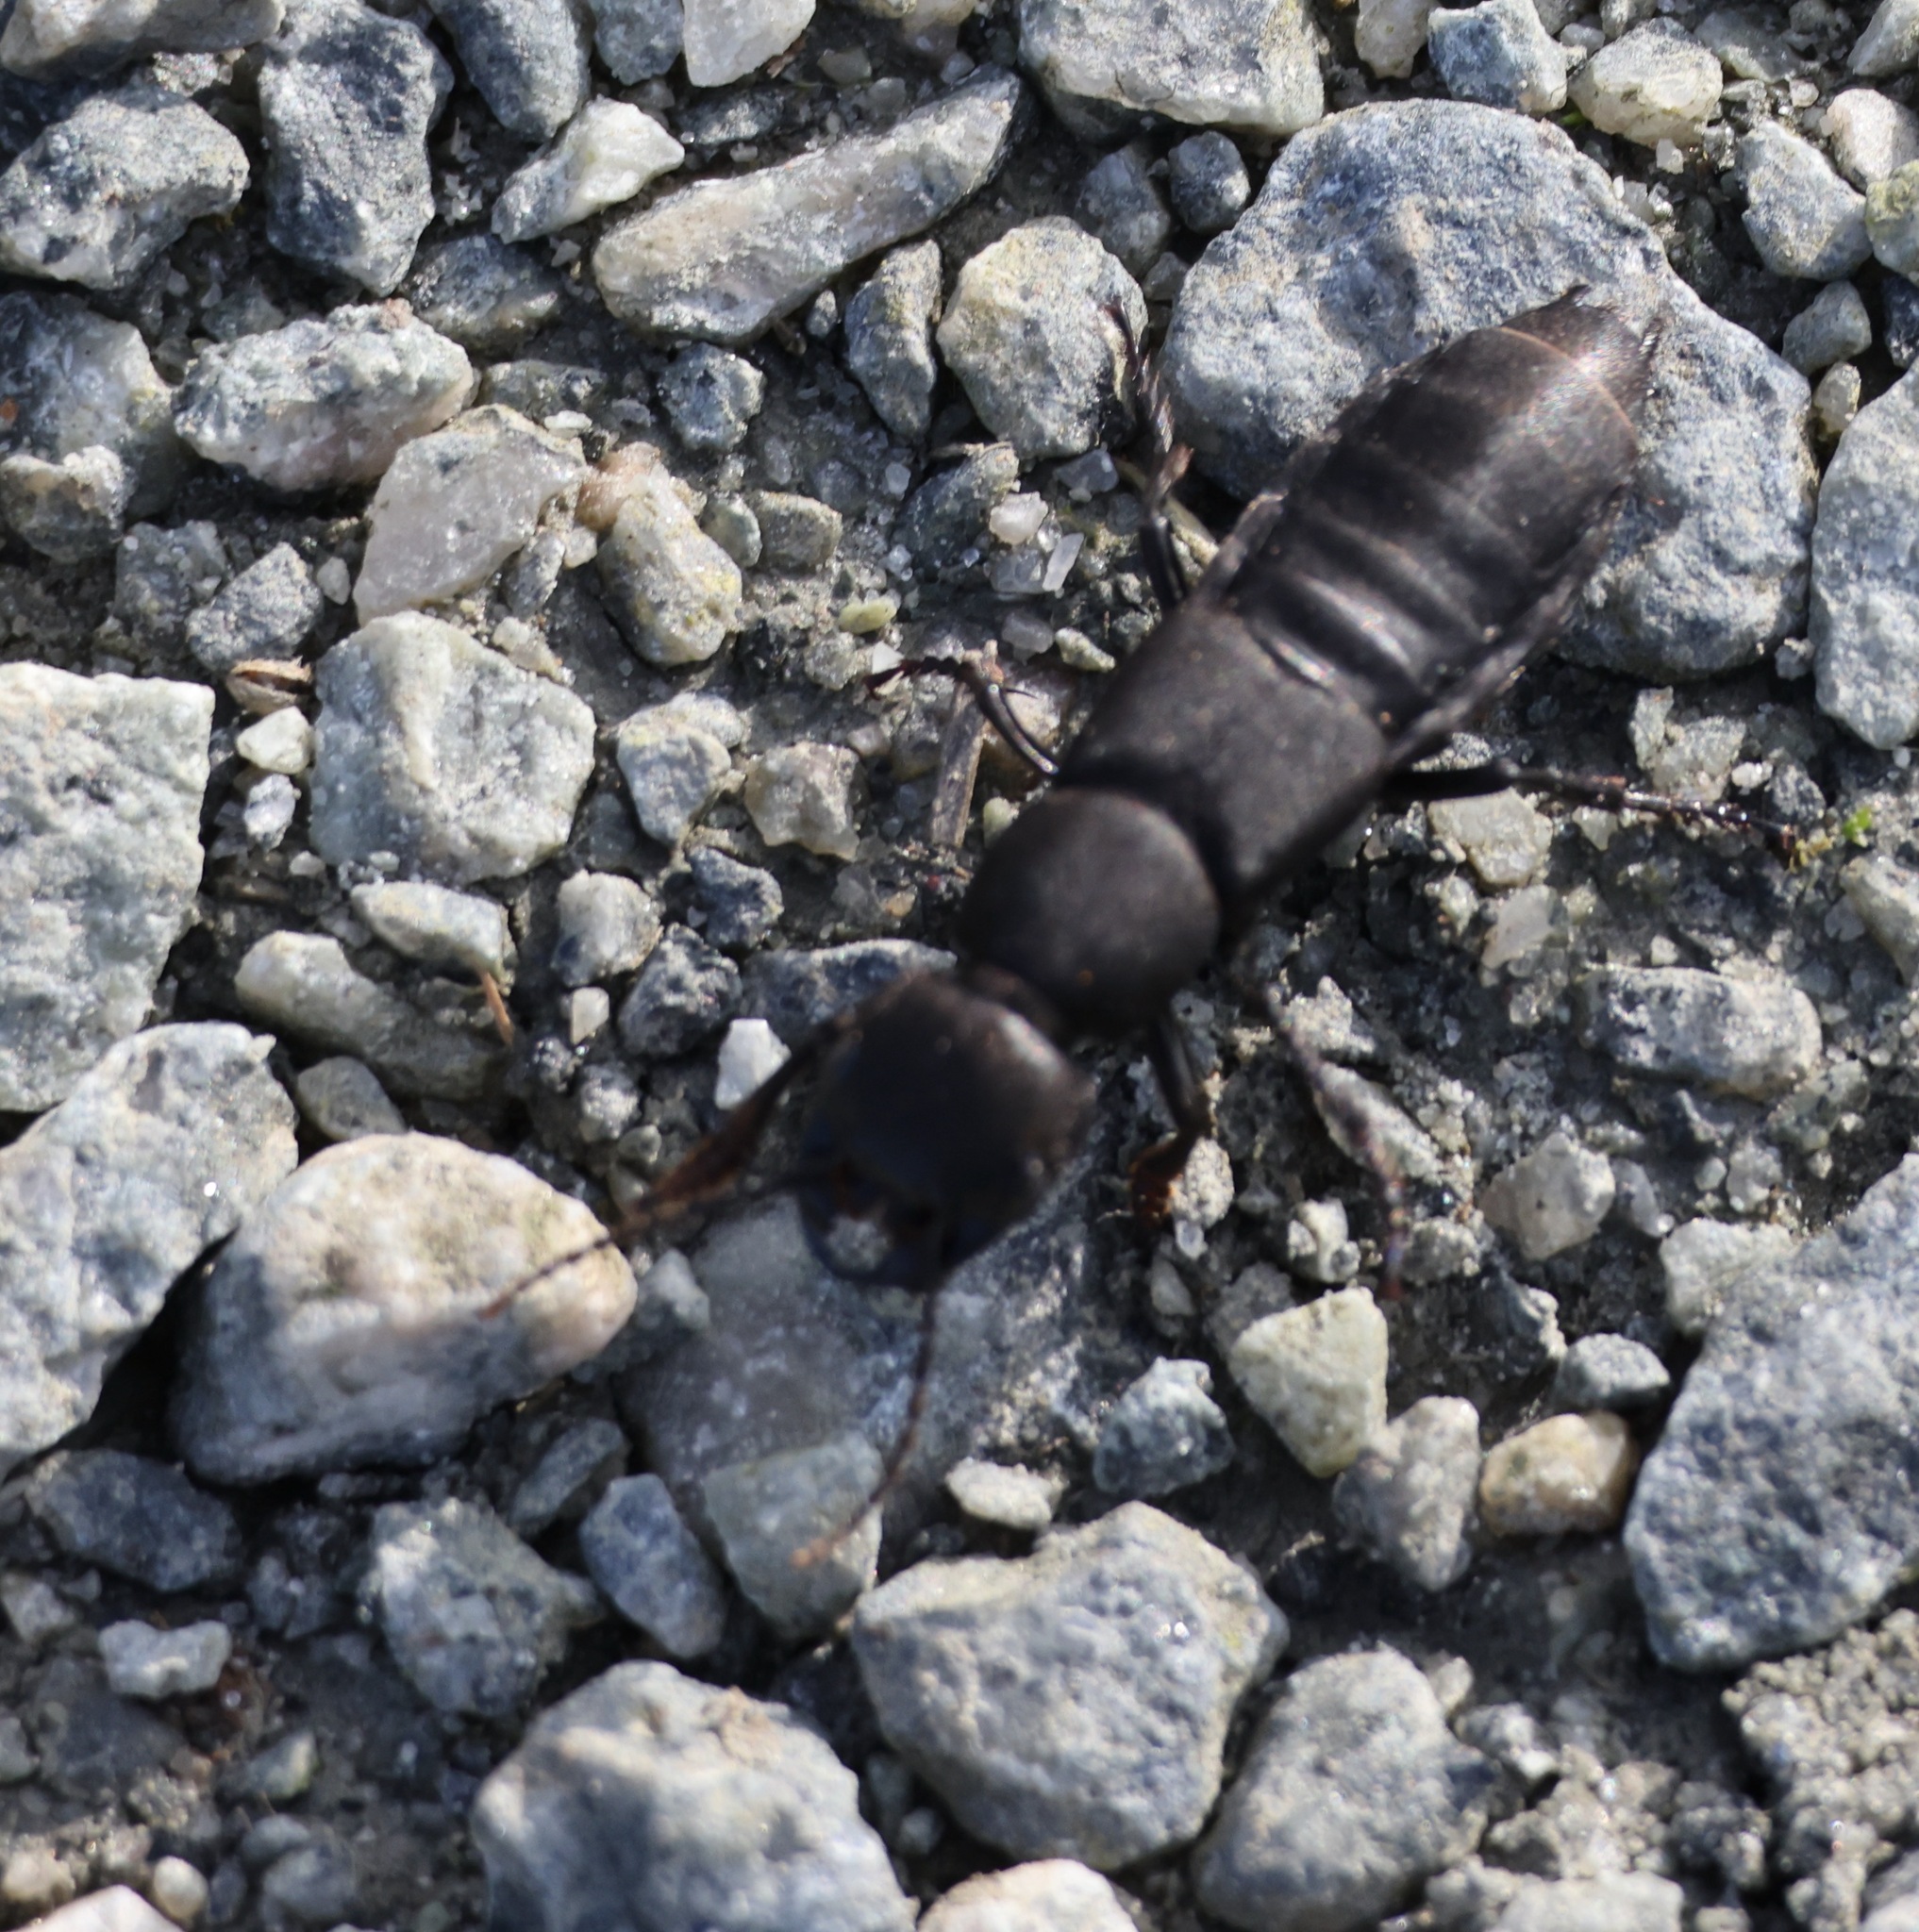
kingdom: Animalia
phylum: Arthropoda
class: Insecta
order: Coleoptera
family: Staphylinidae
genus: Ocypus
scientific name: Ocypus olens
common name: Devil's coach-horse
